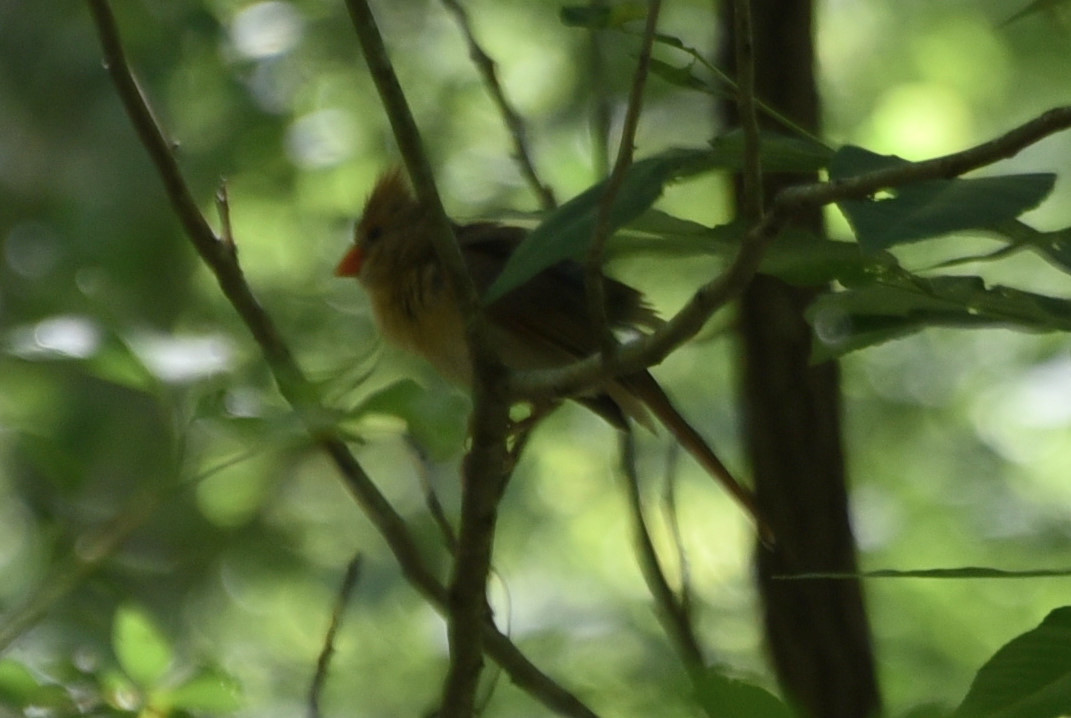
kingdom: Animalia
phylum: Chordata
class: Aves
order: Passeriformes
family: Cardinalidae
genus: Cardinalis
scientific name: Cardinalis cardinalis
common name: Northern cardinal
